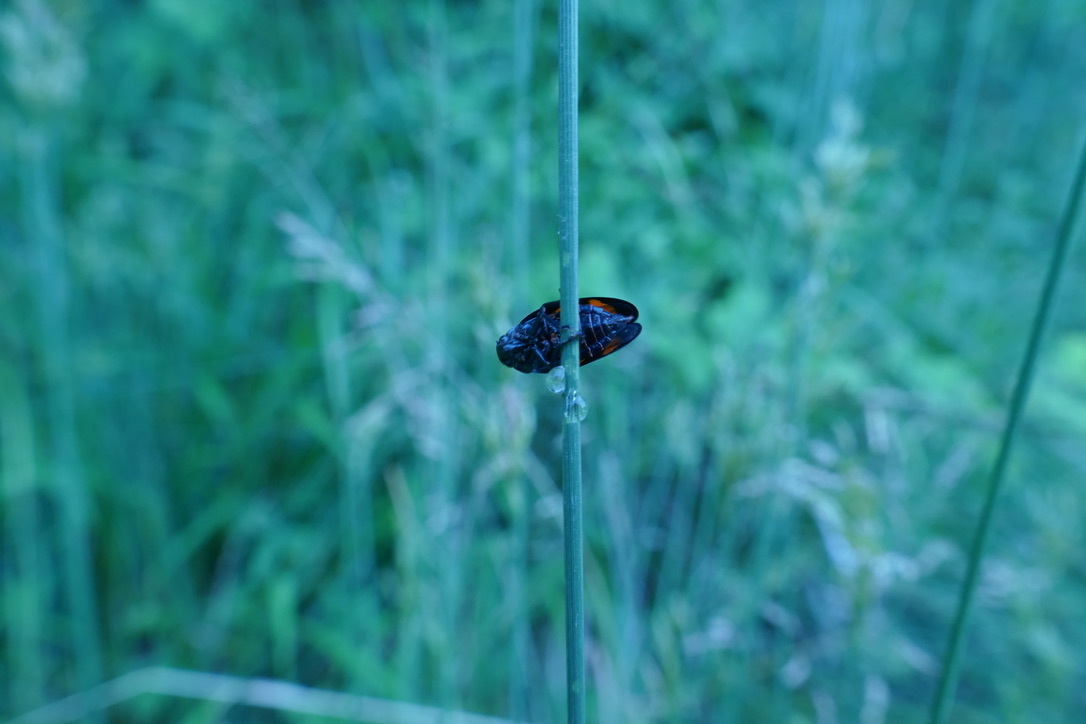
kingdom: Animalia
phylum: Arthropoda
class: Insecta
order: Hemiptera
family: Cercopidae
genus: Cercopis
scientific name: Cercopis vulnerata
